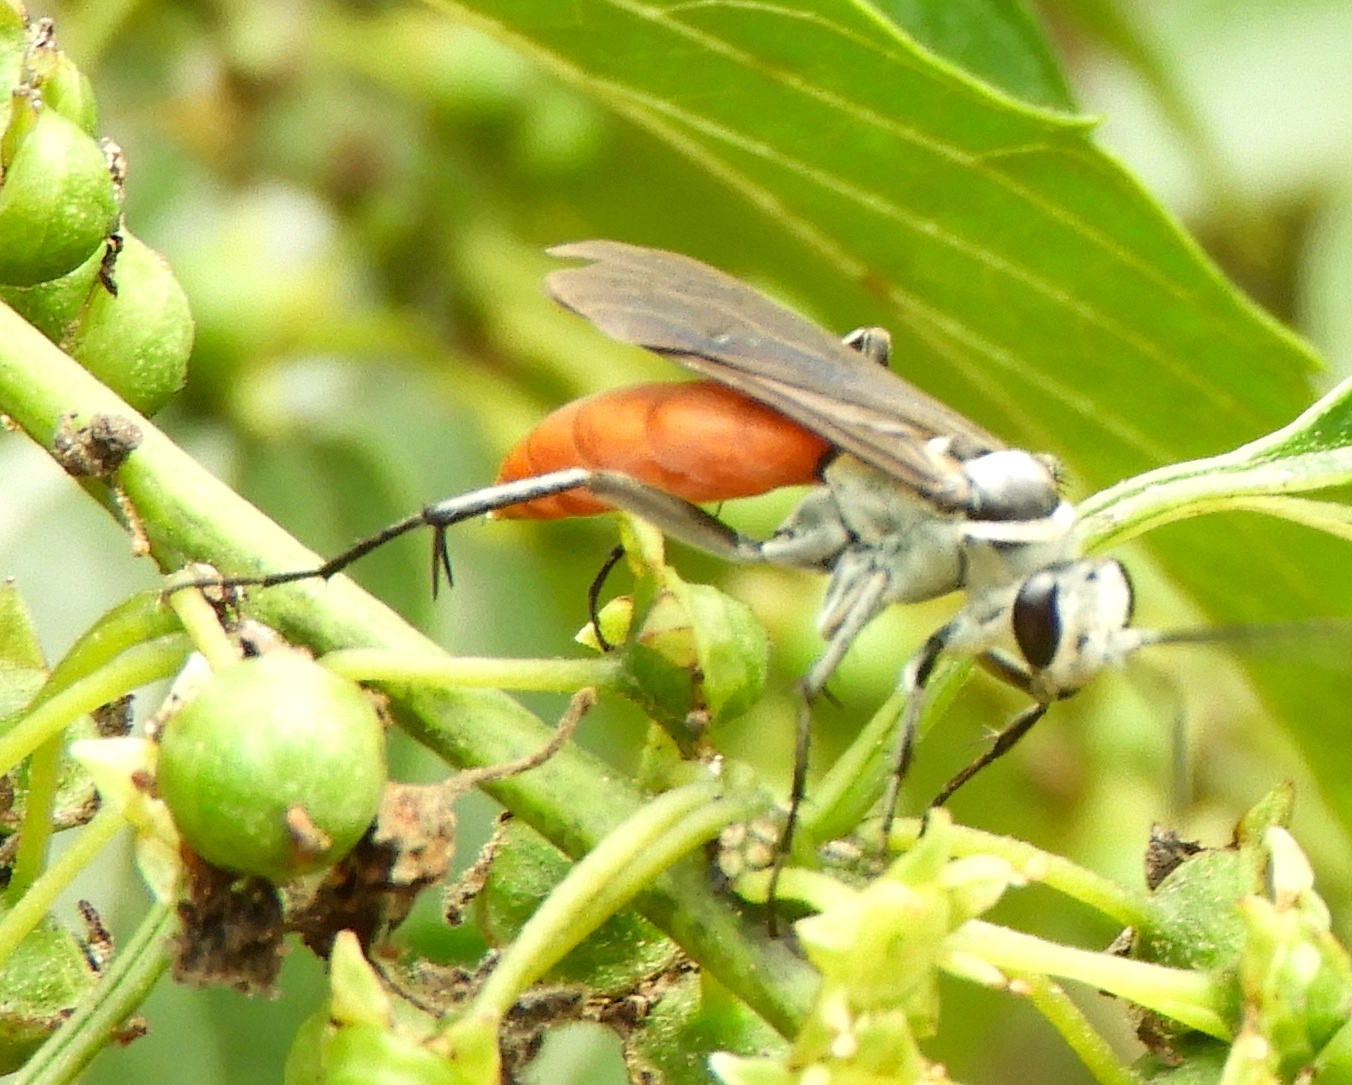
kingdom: Animalia
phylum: Arthropoda
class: Insecta
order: Hymenoptera
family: Pompilidae
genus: Xerochares
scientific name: Xerochares expulsus
